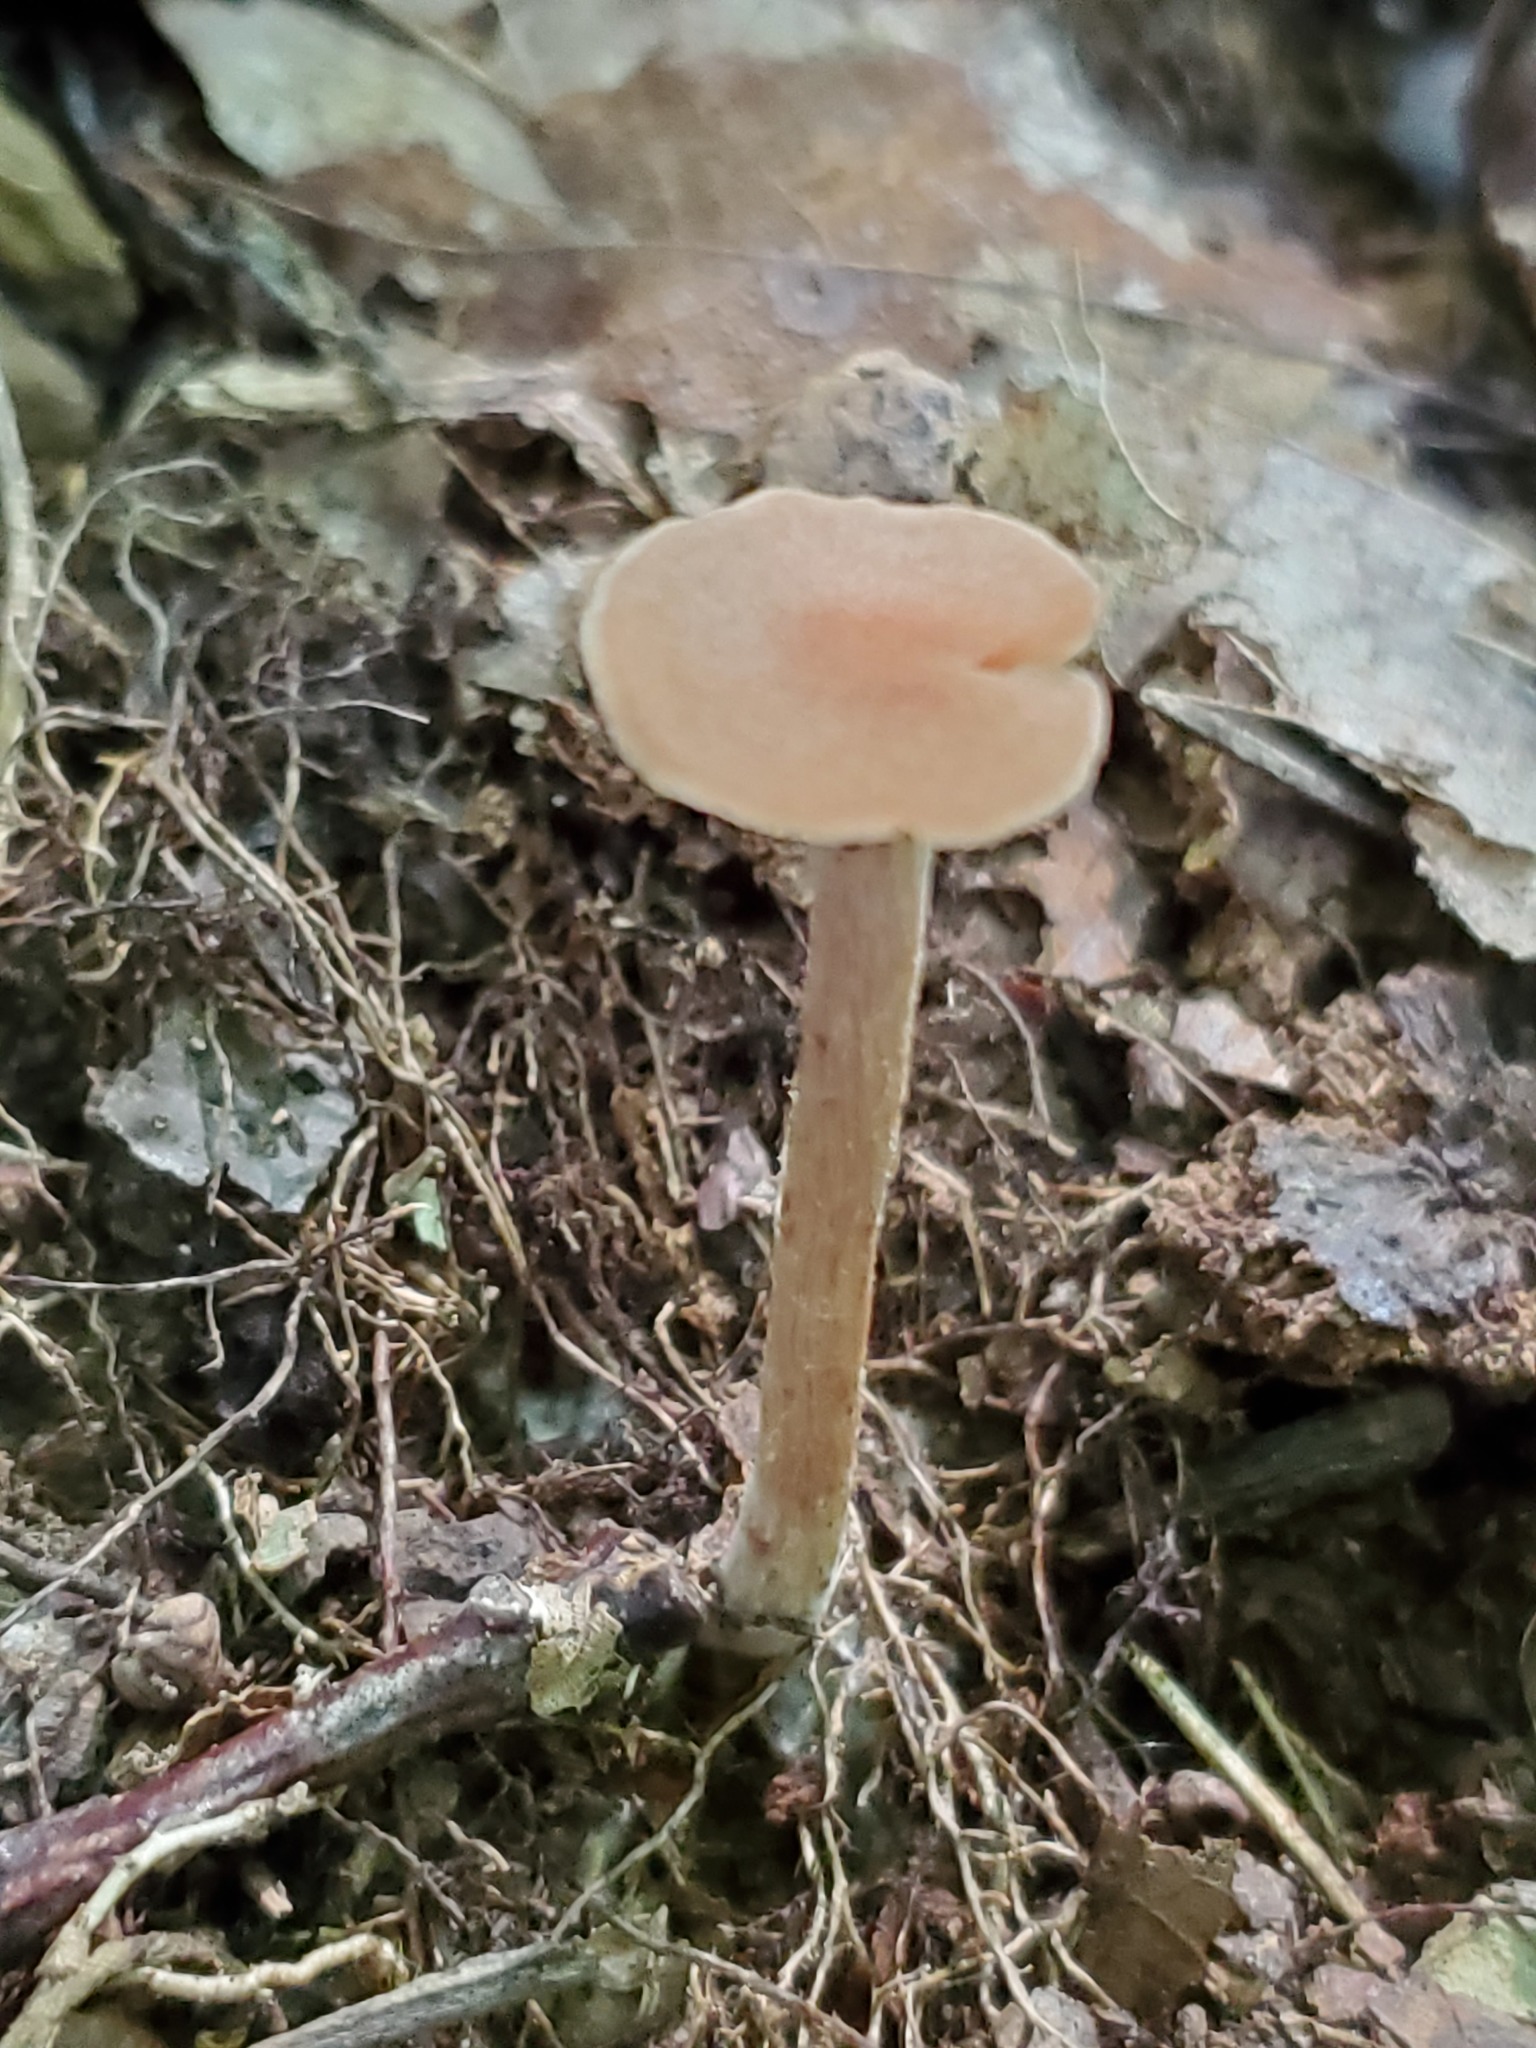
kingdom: Fungi
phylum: Basidiomycota
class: Agaricomycetes
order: Agaricales
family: Hydnangiaceae
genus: Laccaria
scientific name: Laccaria laccata
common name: Deceiver
